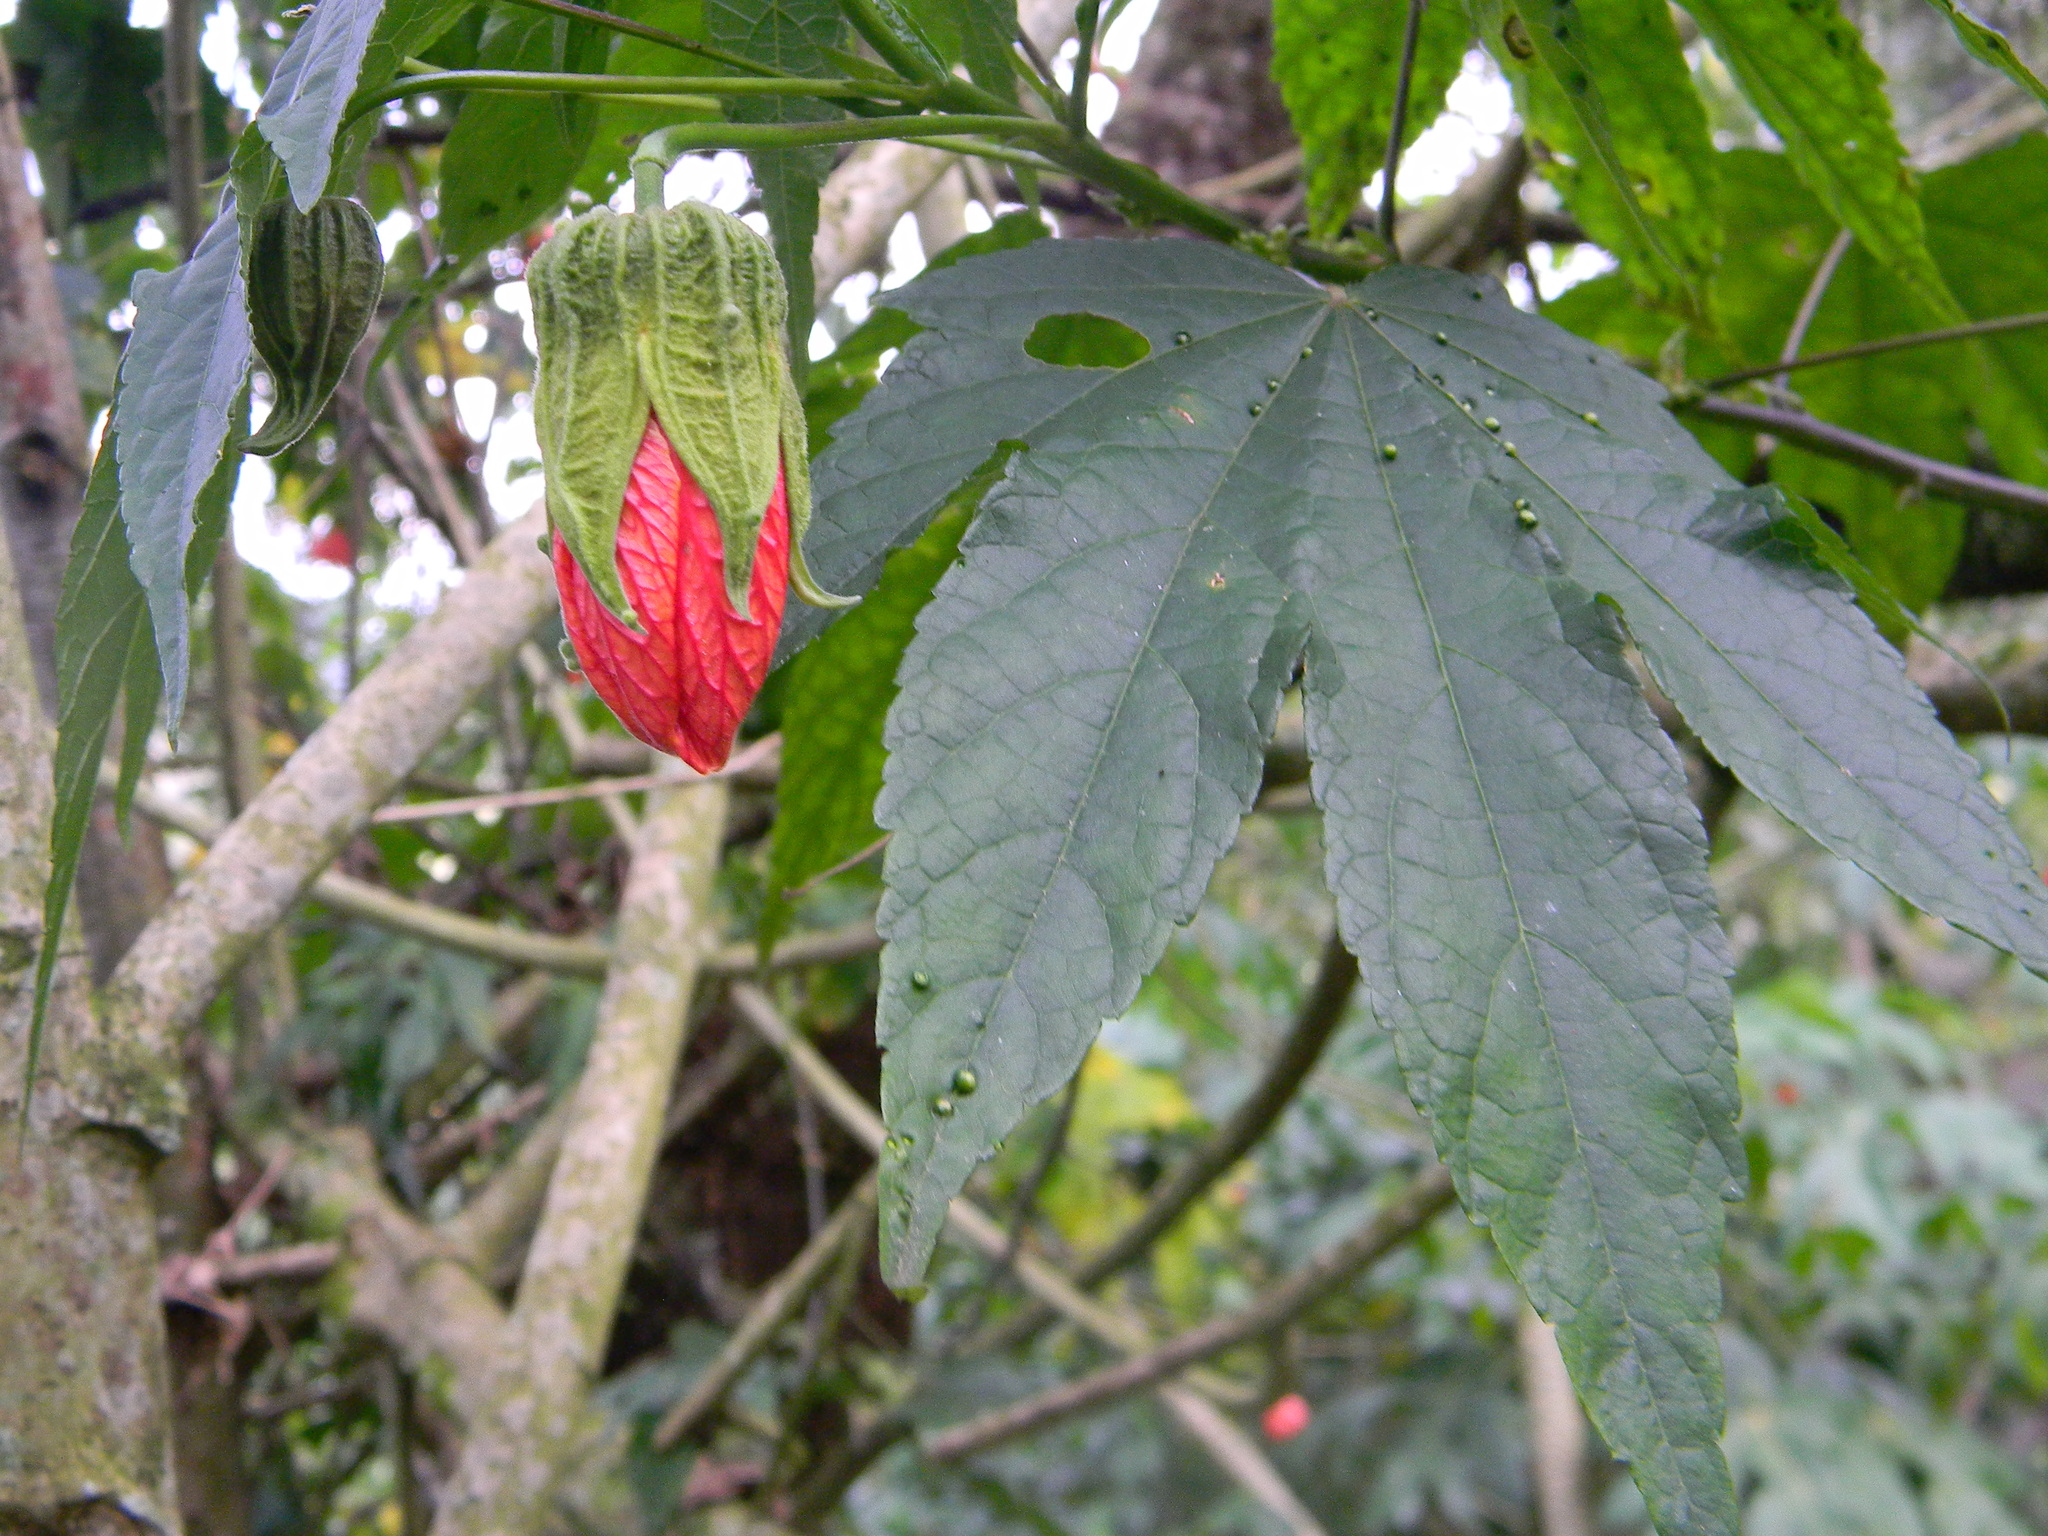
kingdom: Plantae
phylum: Tracheophyta
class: Magnoliopsida
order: Malvales
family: Malvaceae
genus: Callianthe
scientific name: Callianthe picta
